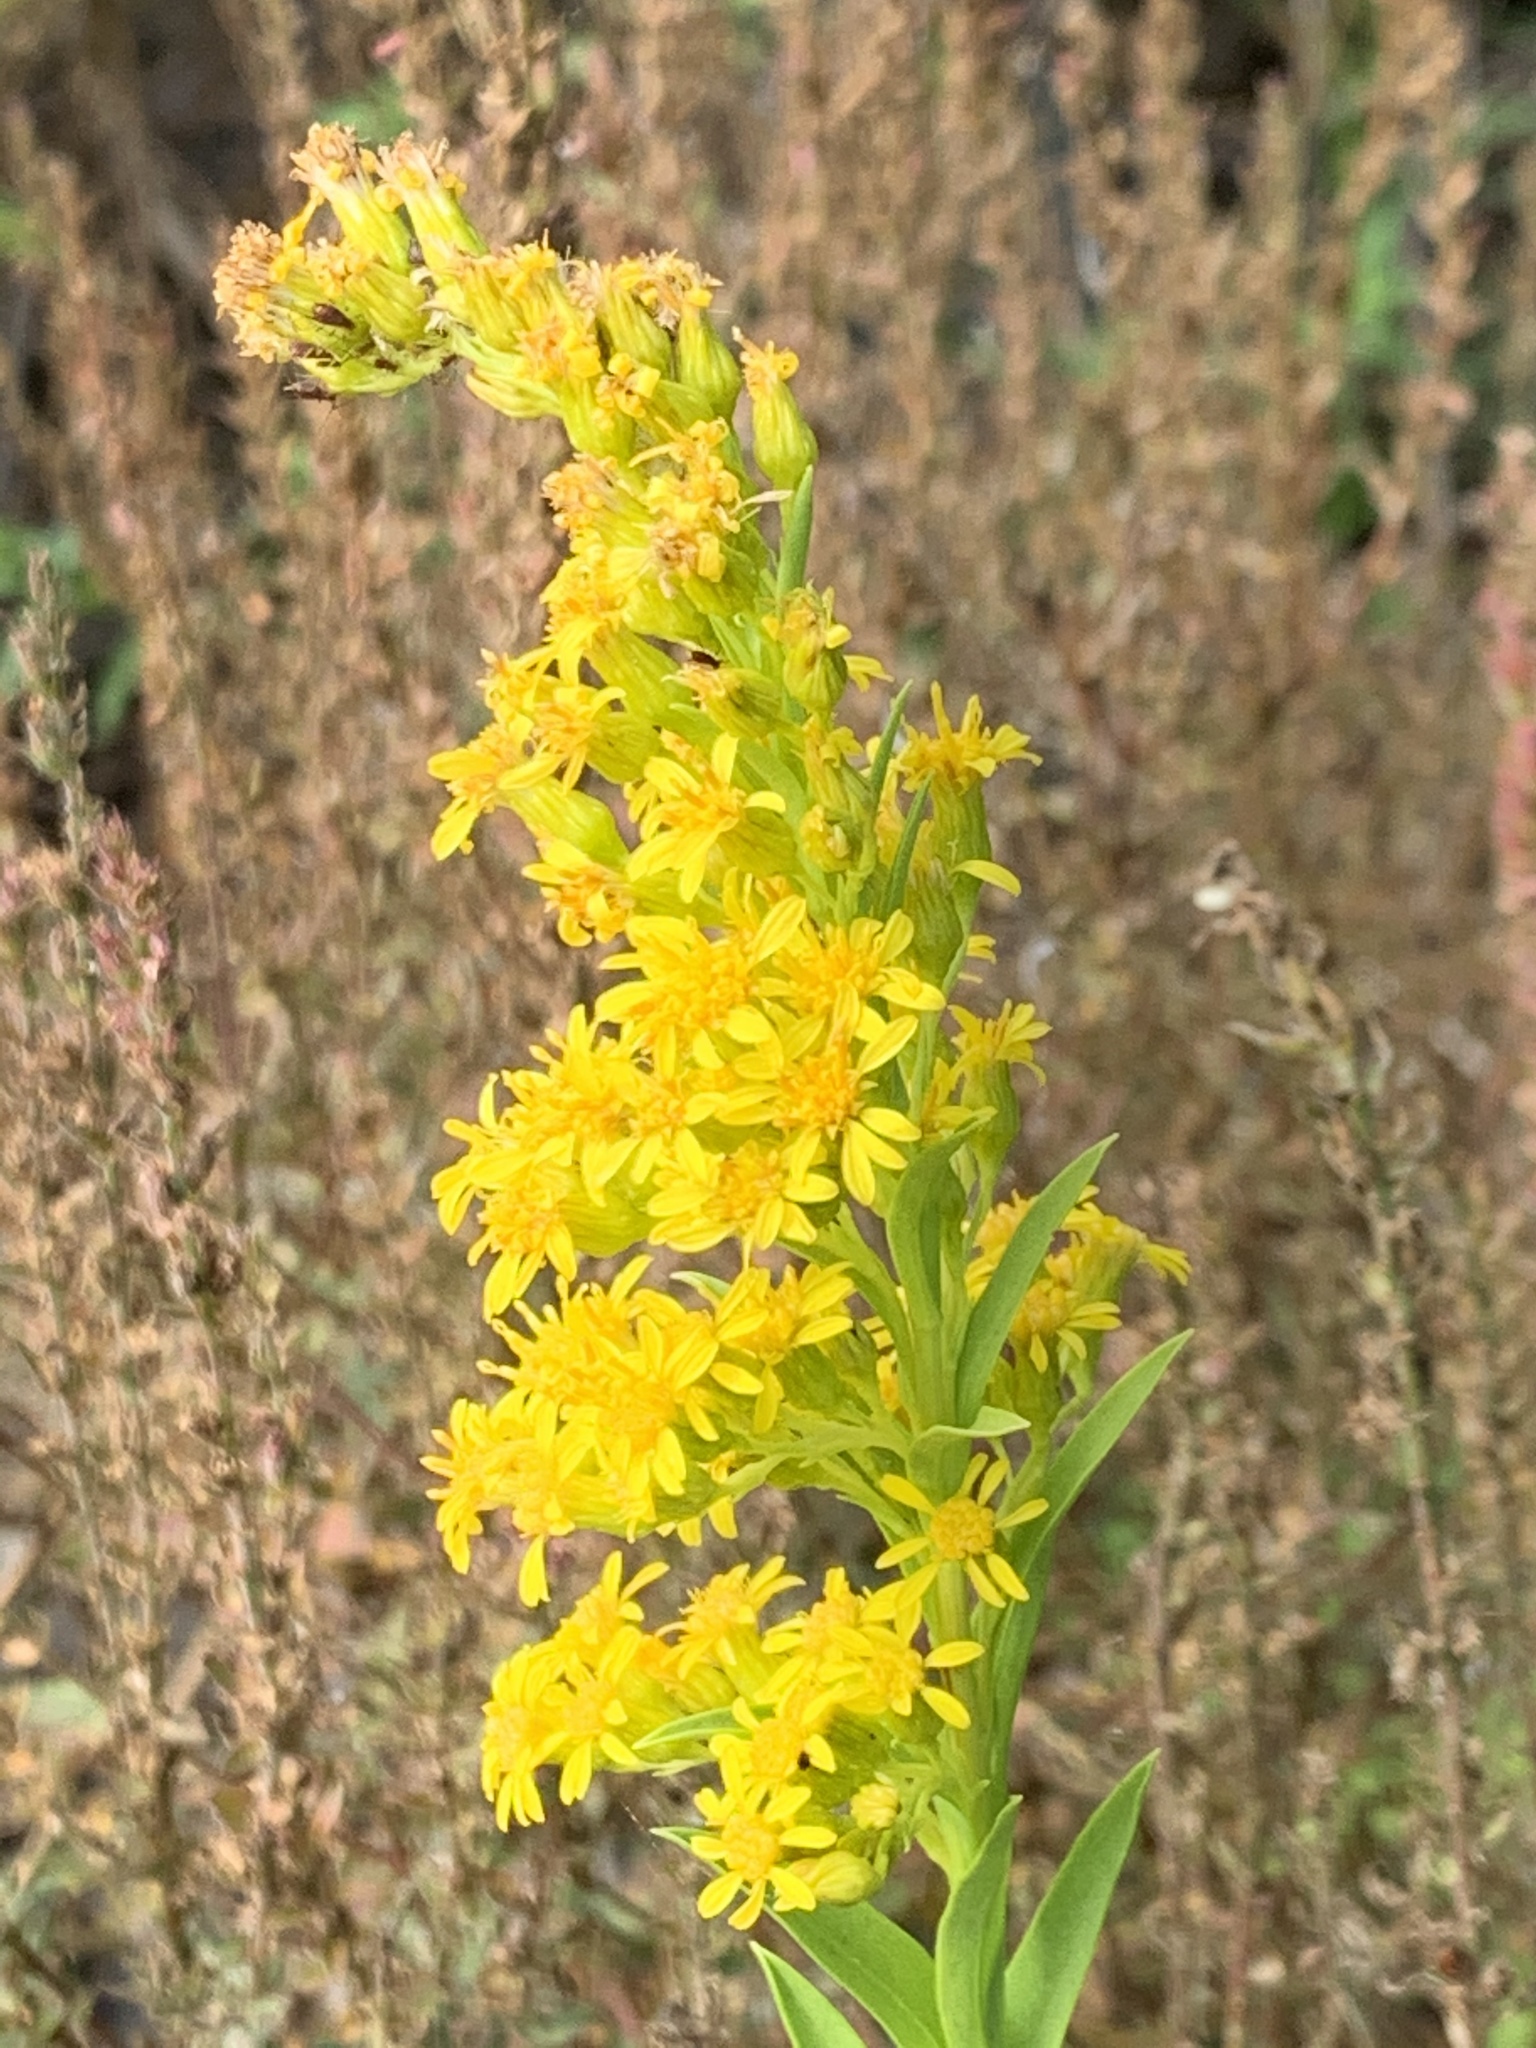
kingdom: Plantae
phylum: Tracheophyta
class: Magnoliopsida
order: Asterales
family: Asteraceae
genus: Solidago
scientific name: Solidago sempervirens
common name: Salt-marsh goldenrod
